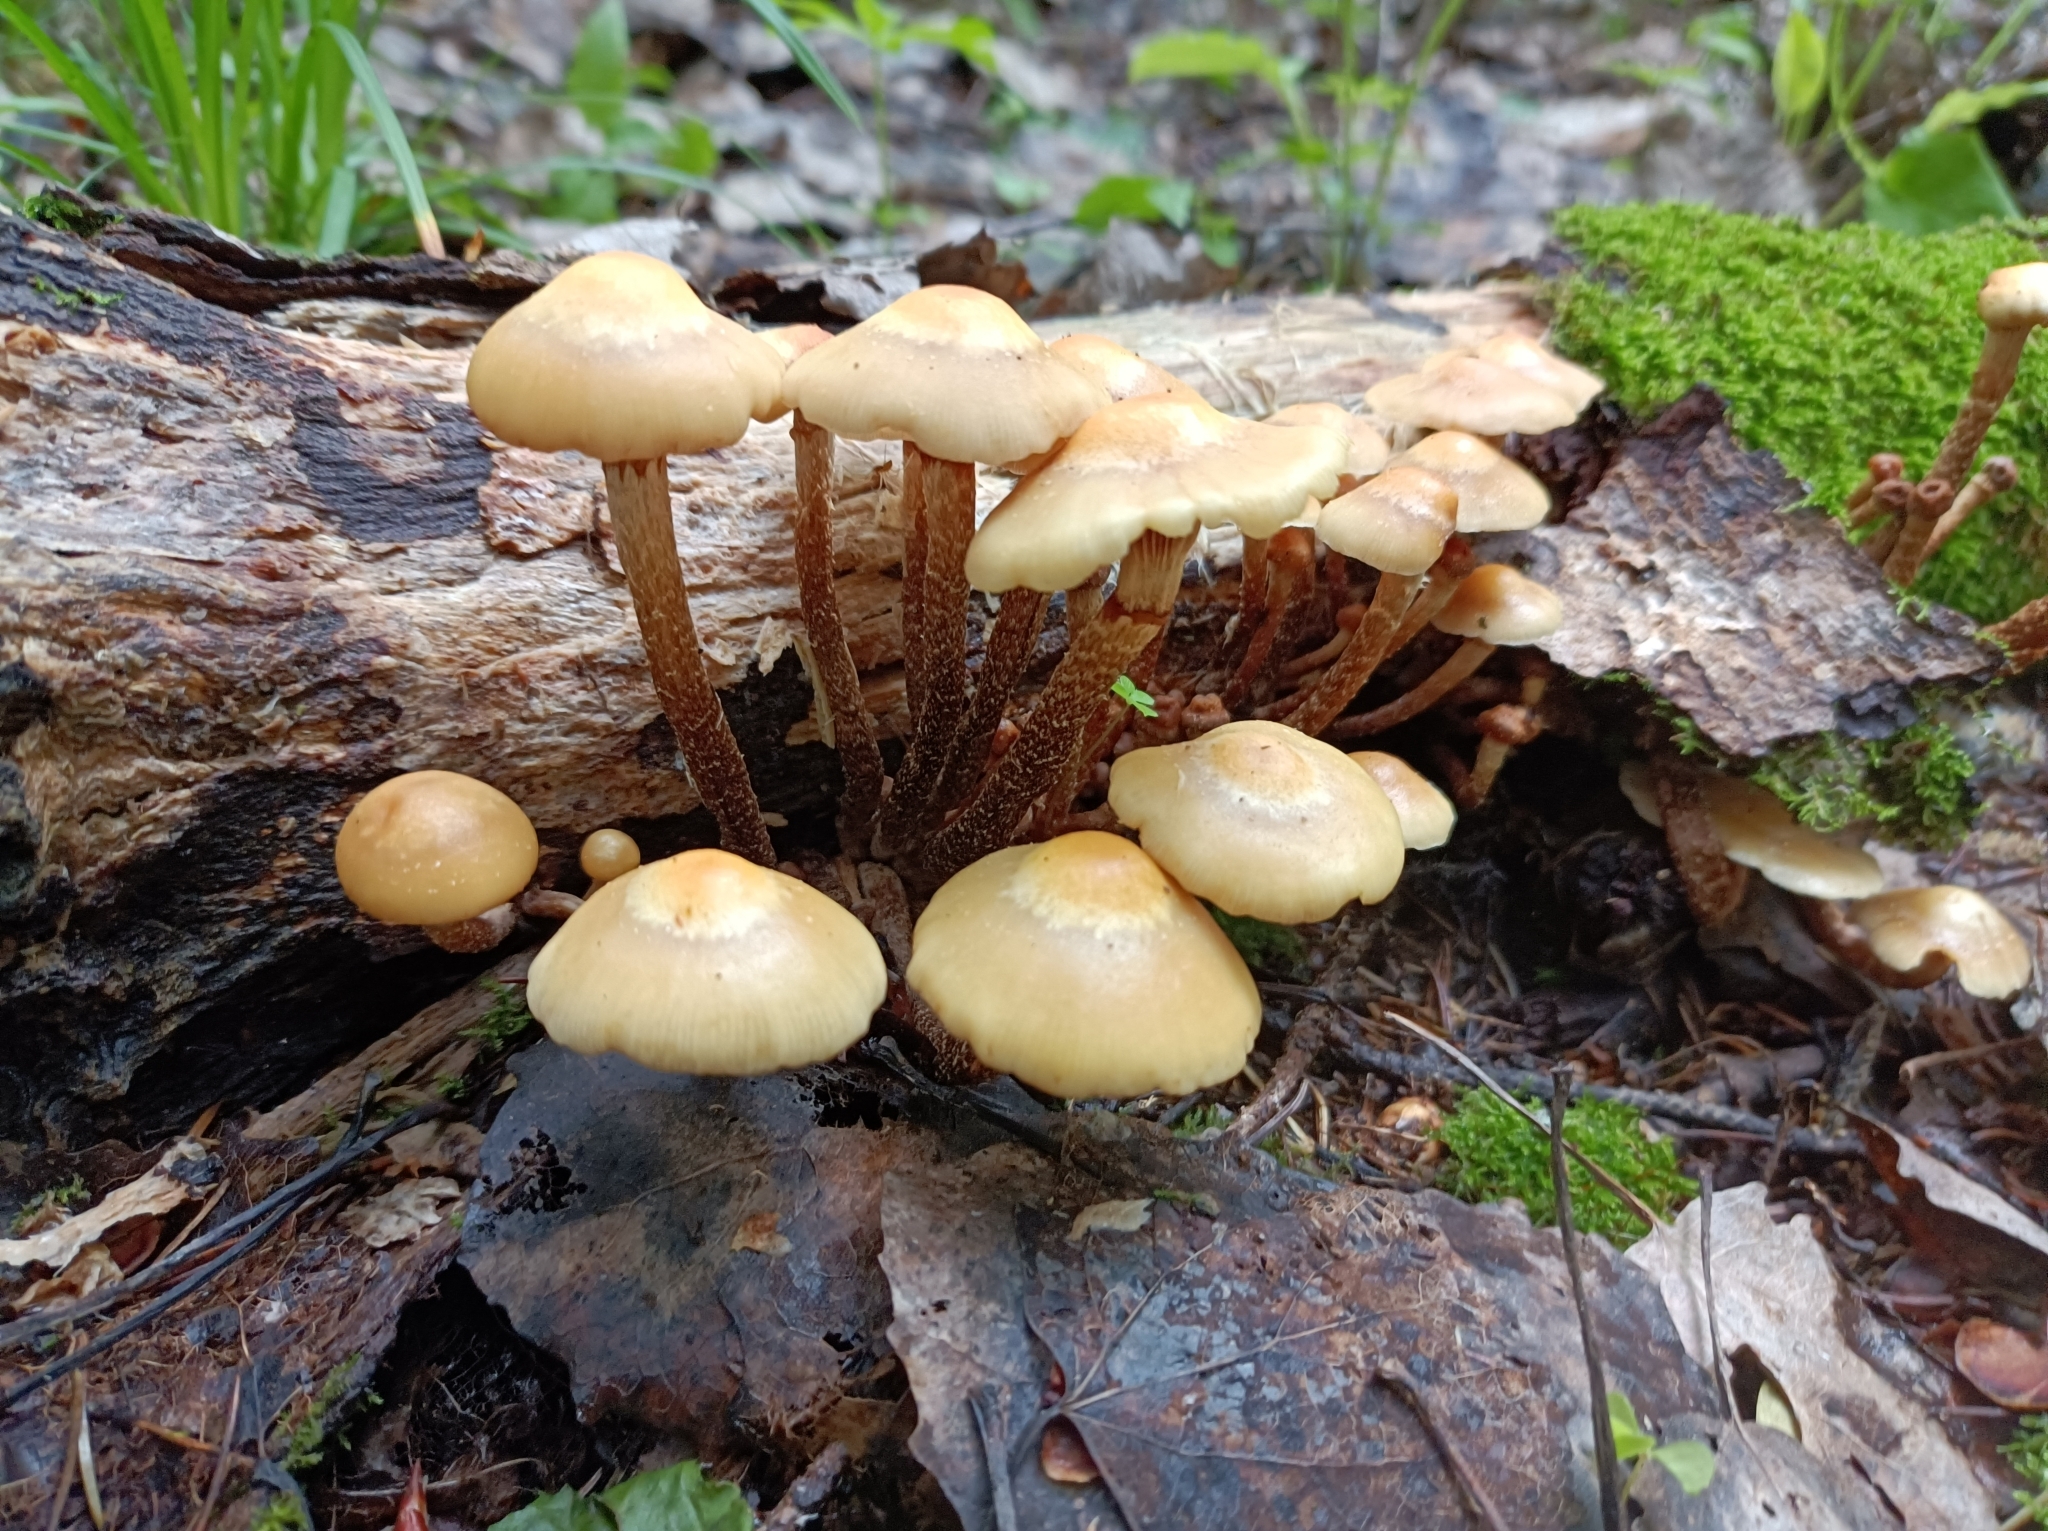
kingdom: Fungi
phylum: Basidiomycota
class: Agaricomycetes
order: Agaricales
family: Strophariaceae
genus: Kuehneromyces
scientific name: Kuehneromyces mutabilis
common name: Sheathed woodtuft
